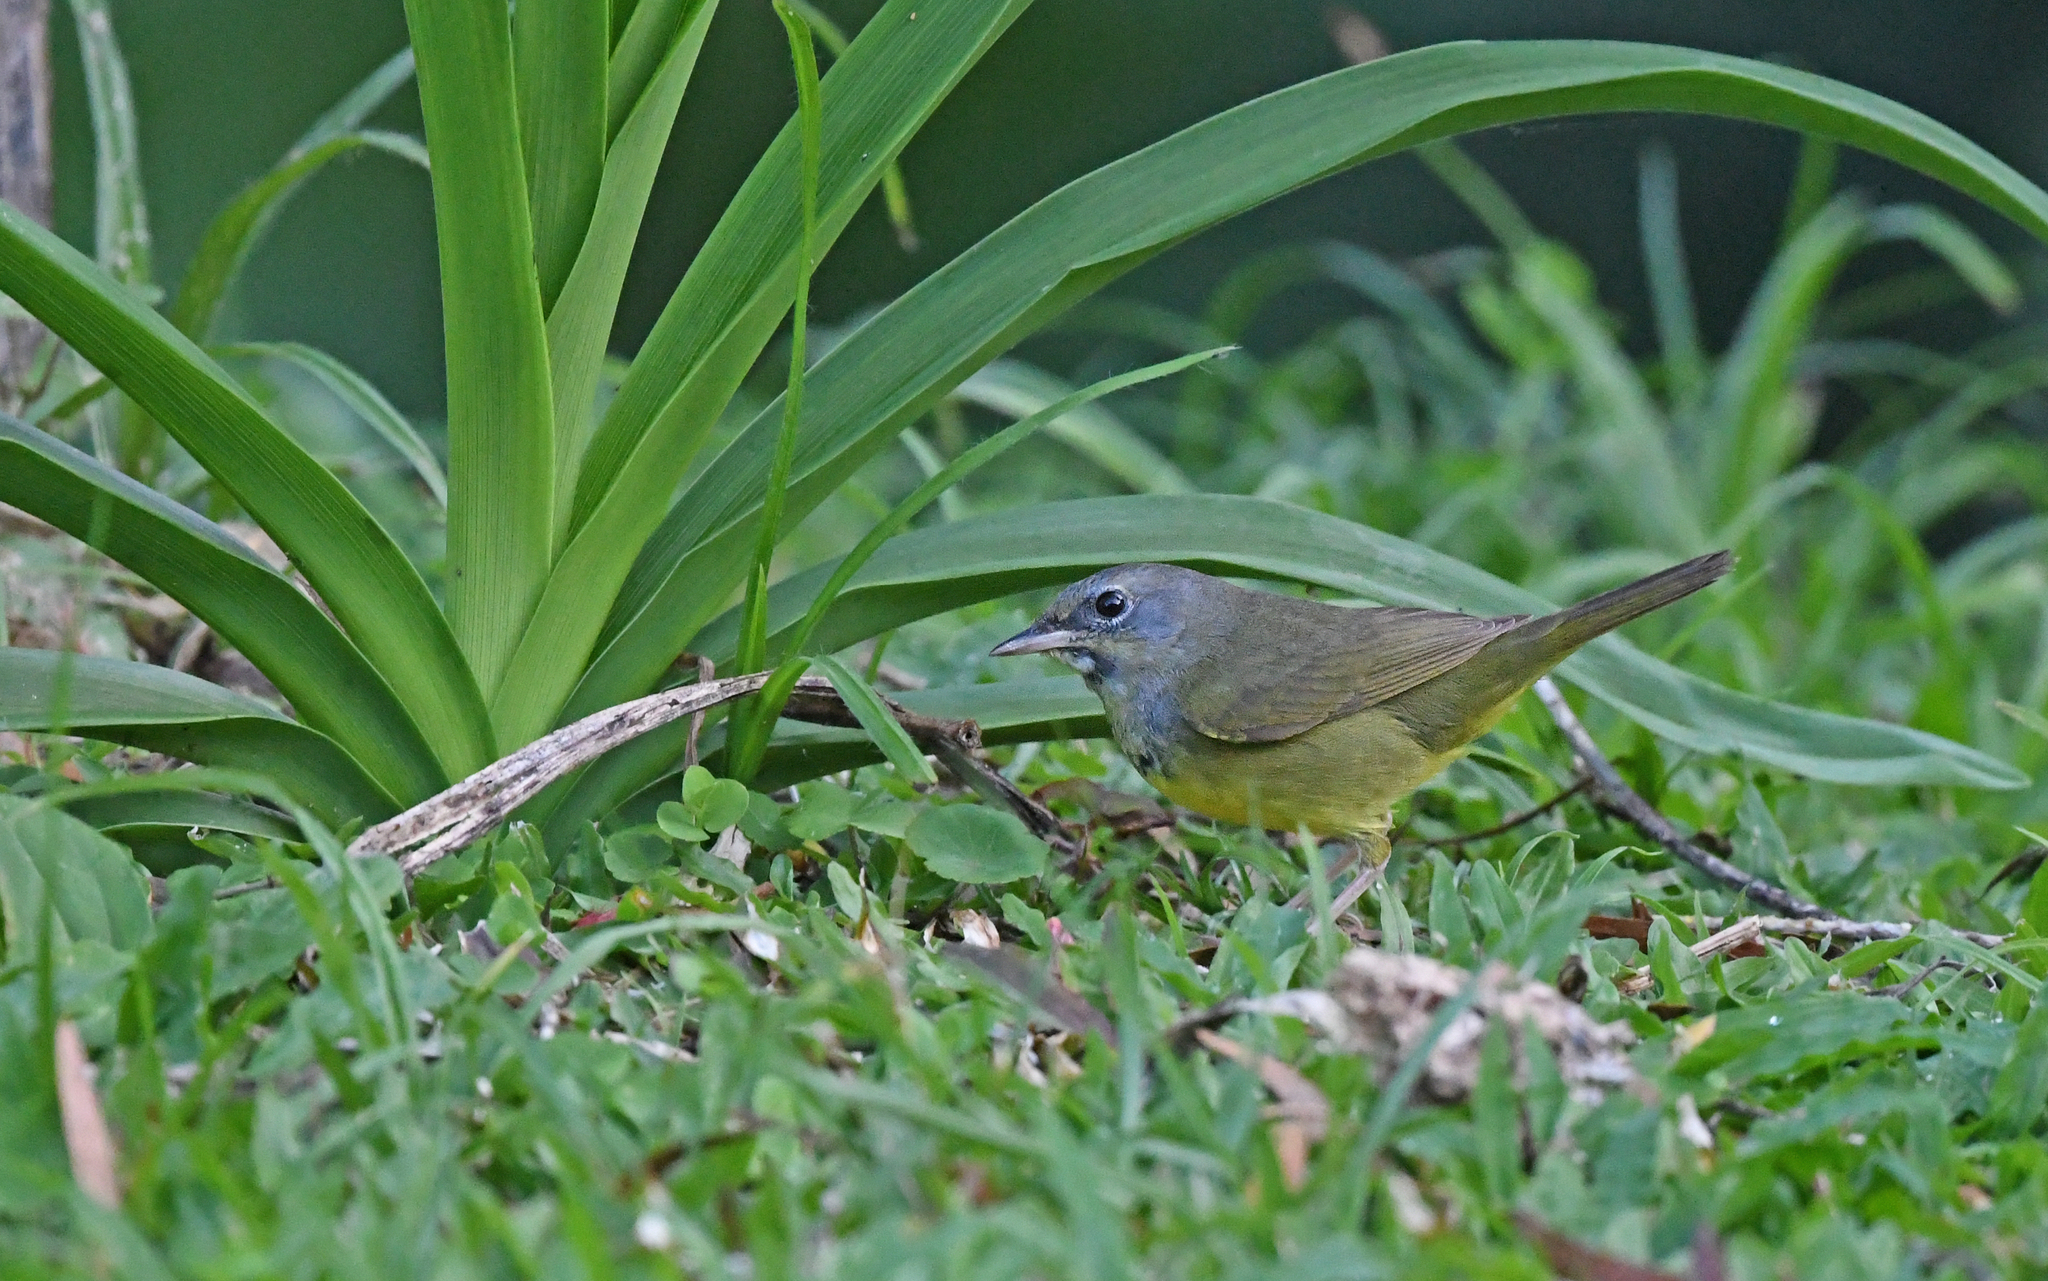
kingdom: Animalia
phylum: Chordata
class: Aves
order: Passeriformes
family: Parulidae
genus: Geothlypis
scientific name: Geothlypis philadelphia
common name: Mourning warbler
